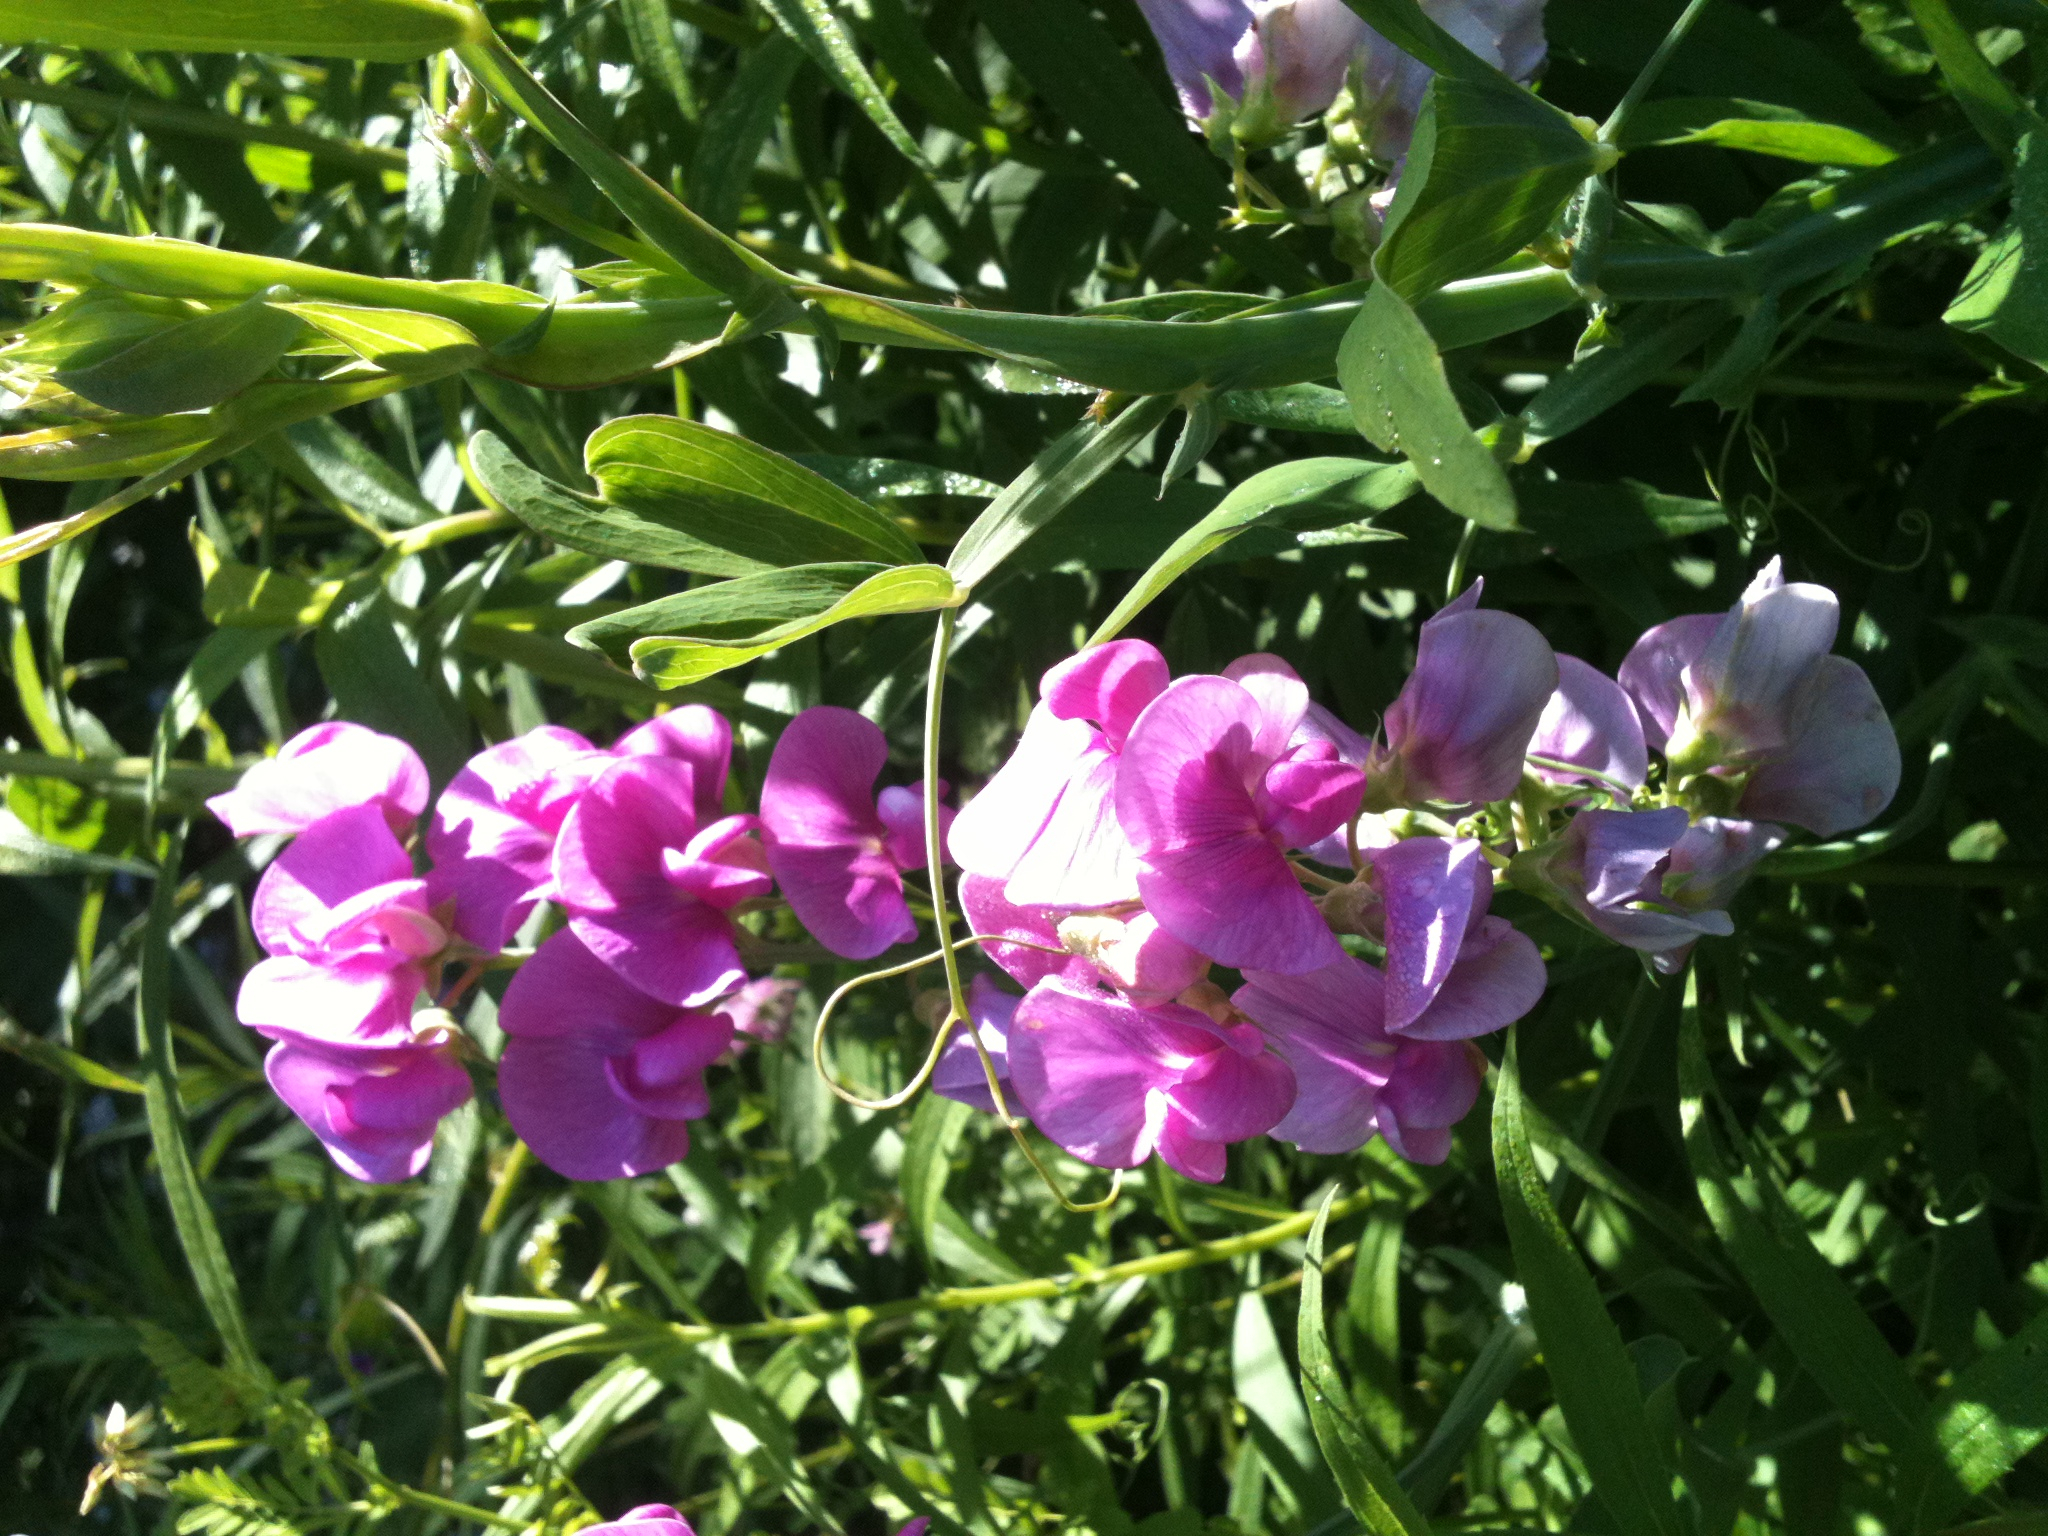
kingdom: Plantae
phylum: Tracheophyta
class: Magnoliopsida
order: Fabales
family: Fabaceae
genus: Lathyrus
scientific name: Lathyrus latifolius
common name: Perennial pea
